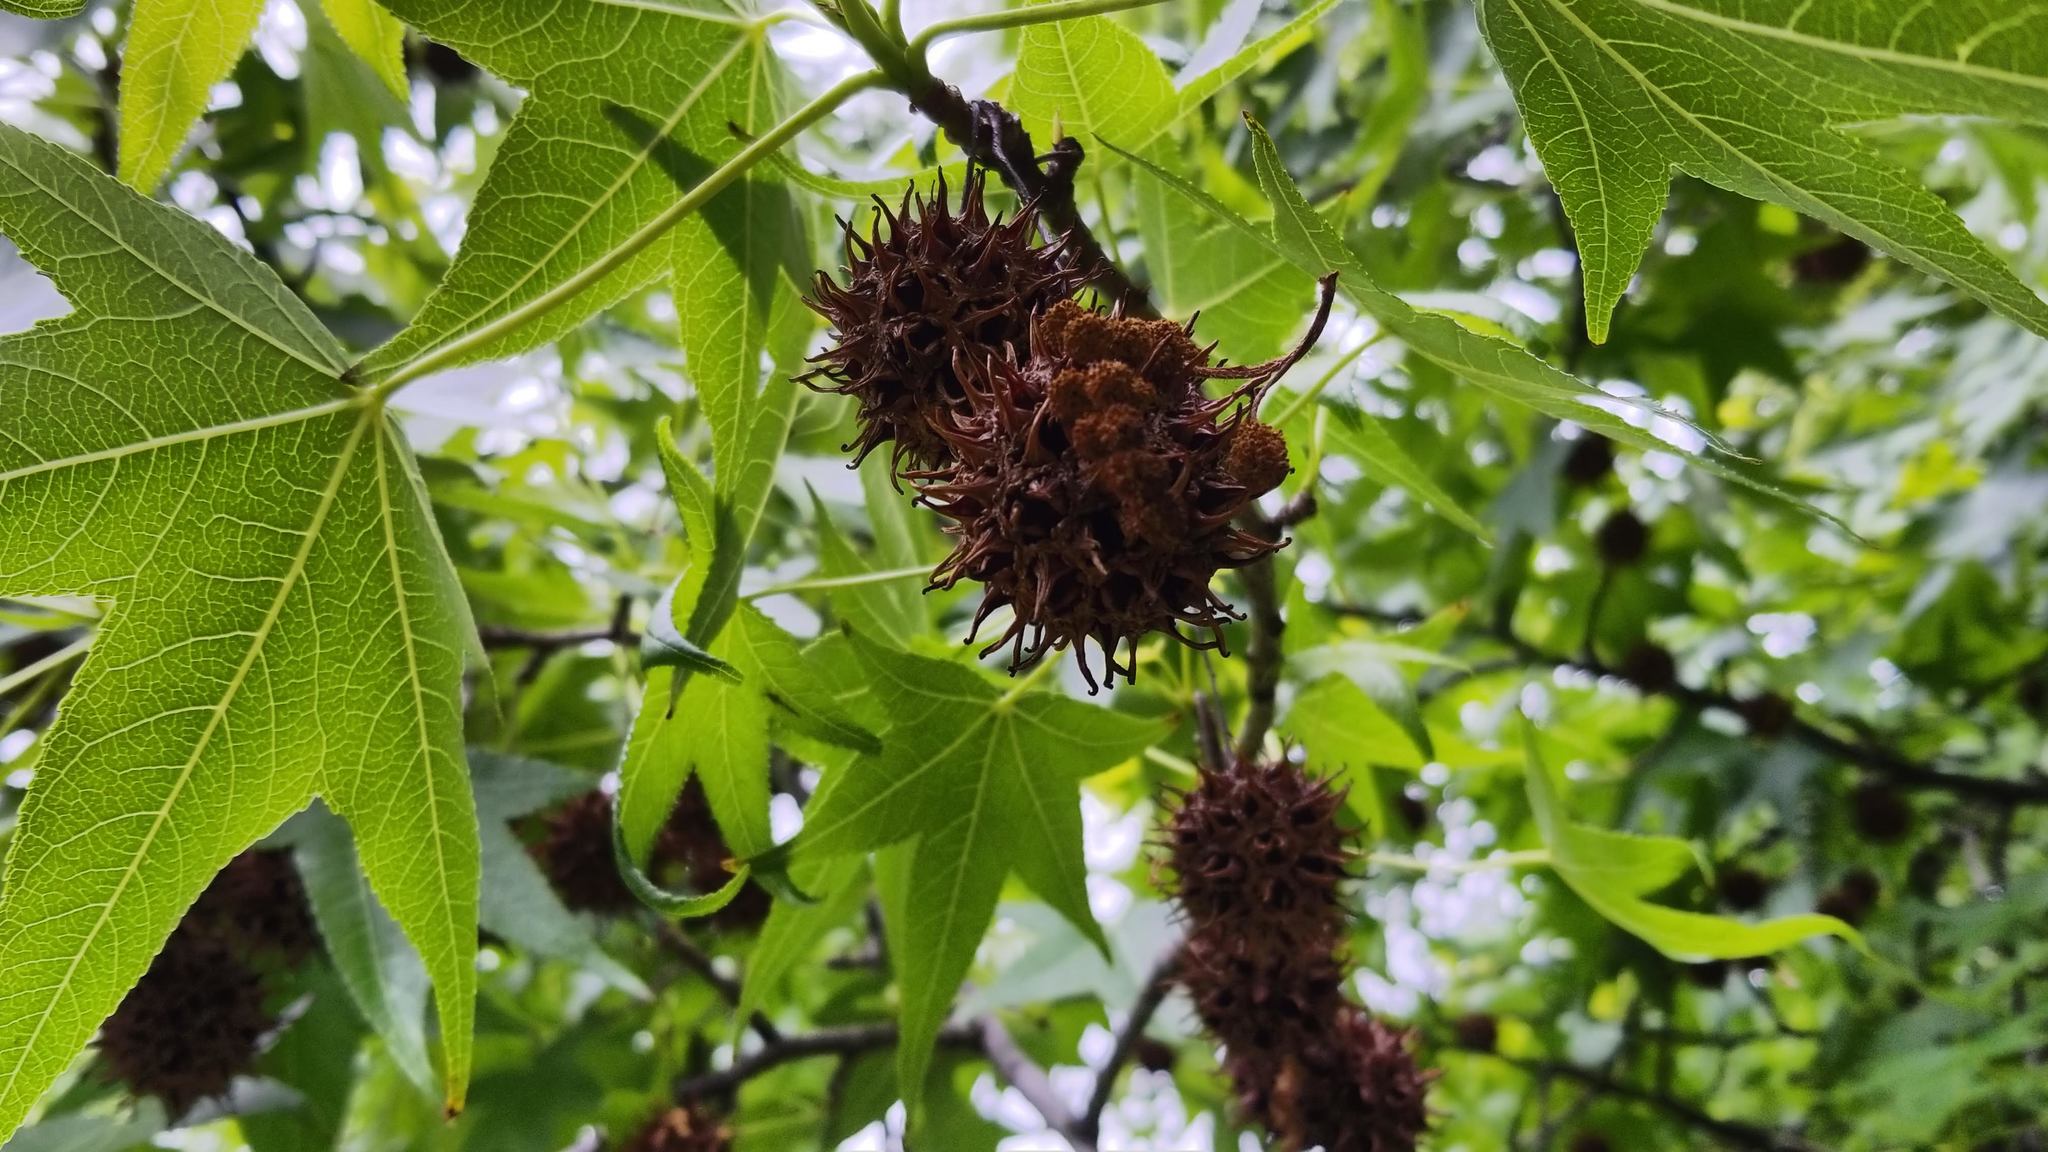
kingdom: Plantae
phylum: Tracheophyta
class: Magnoliopsida
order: Saxifragales
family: Altingiaceae
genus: Liquidambar
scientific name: Liquidambar styraciflua
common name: Sweet gum
